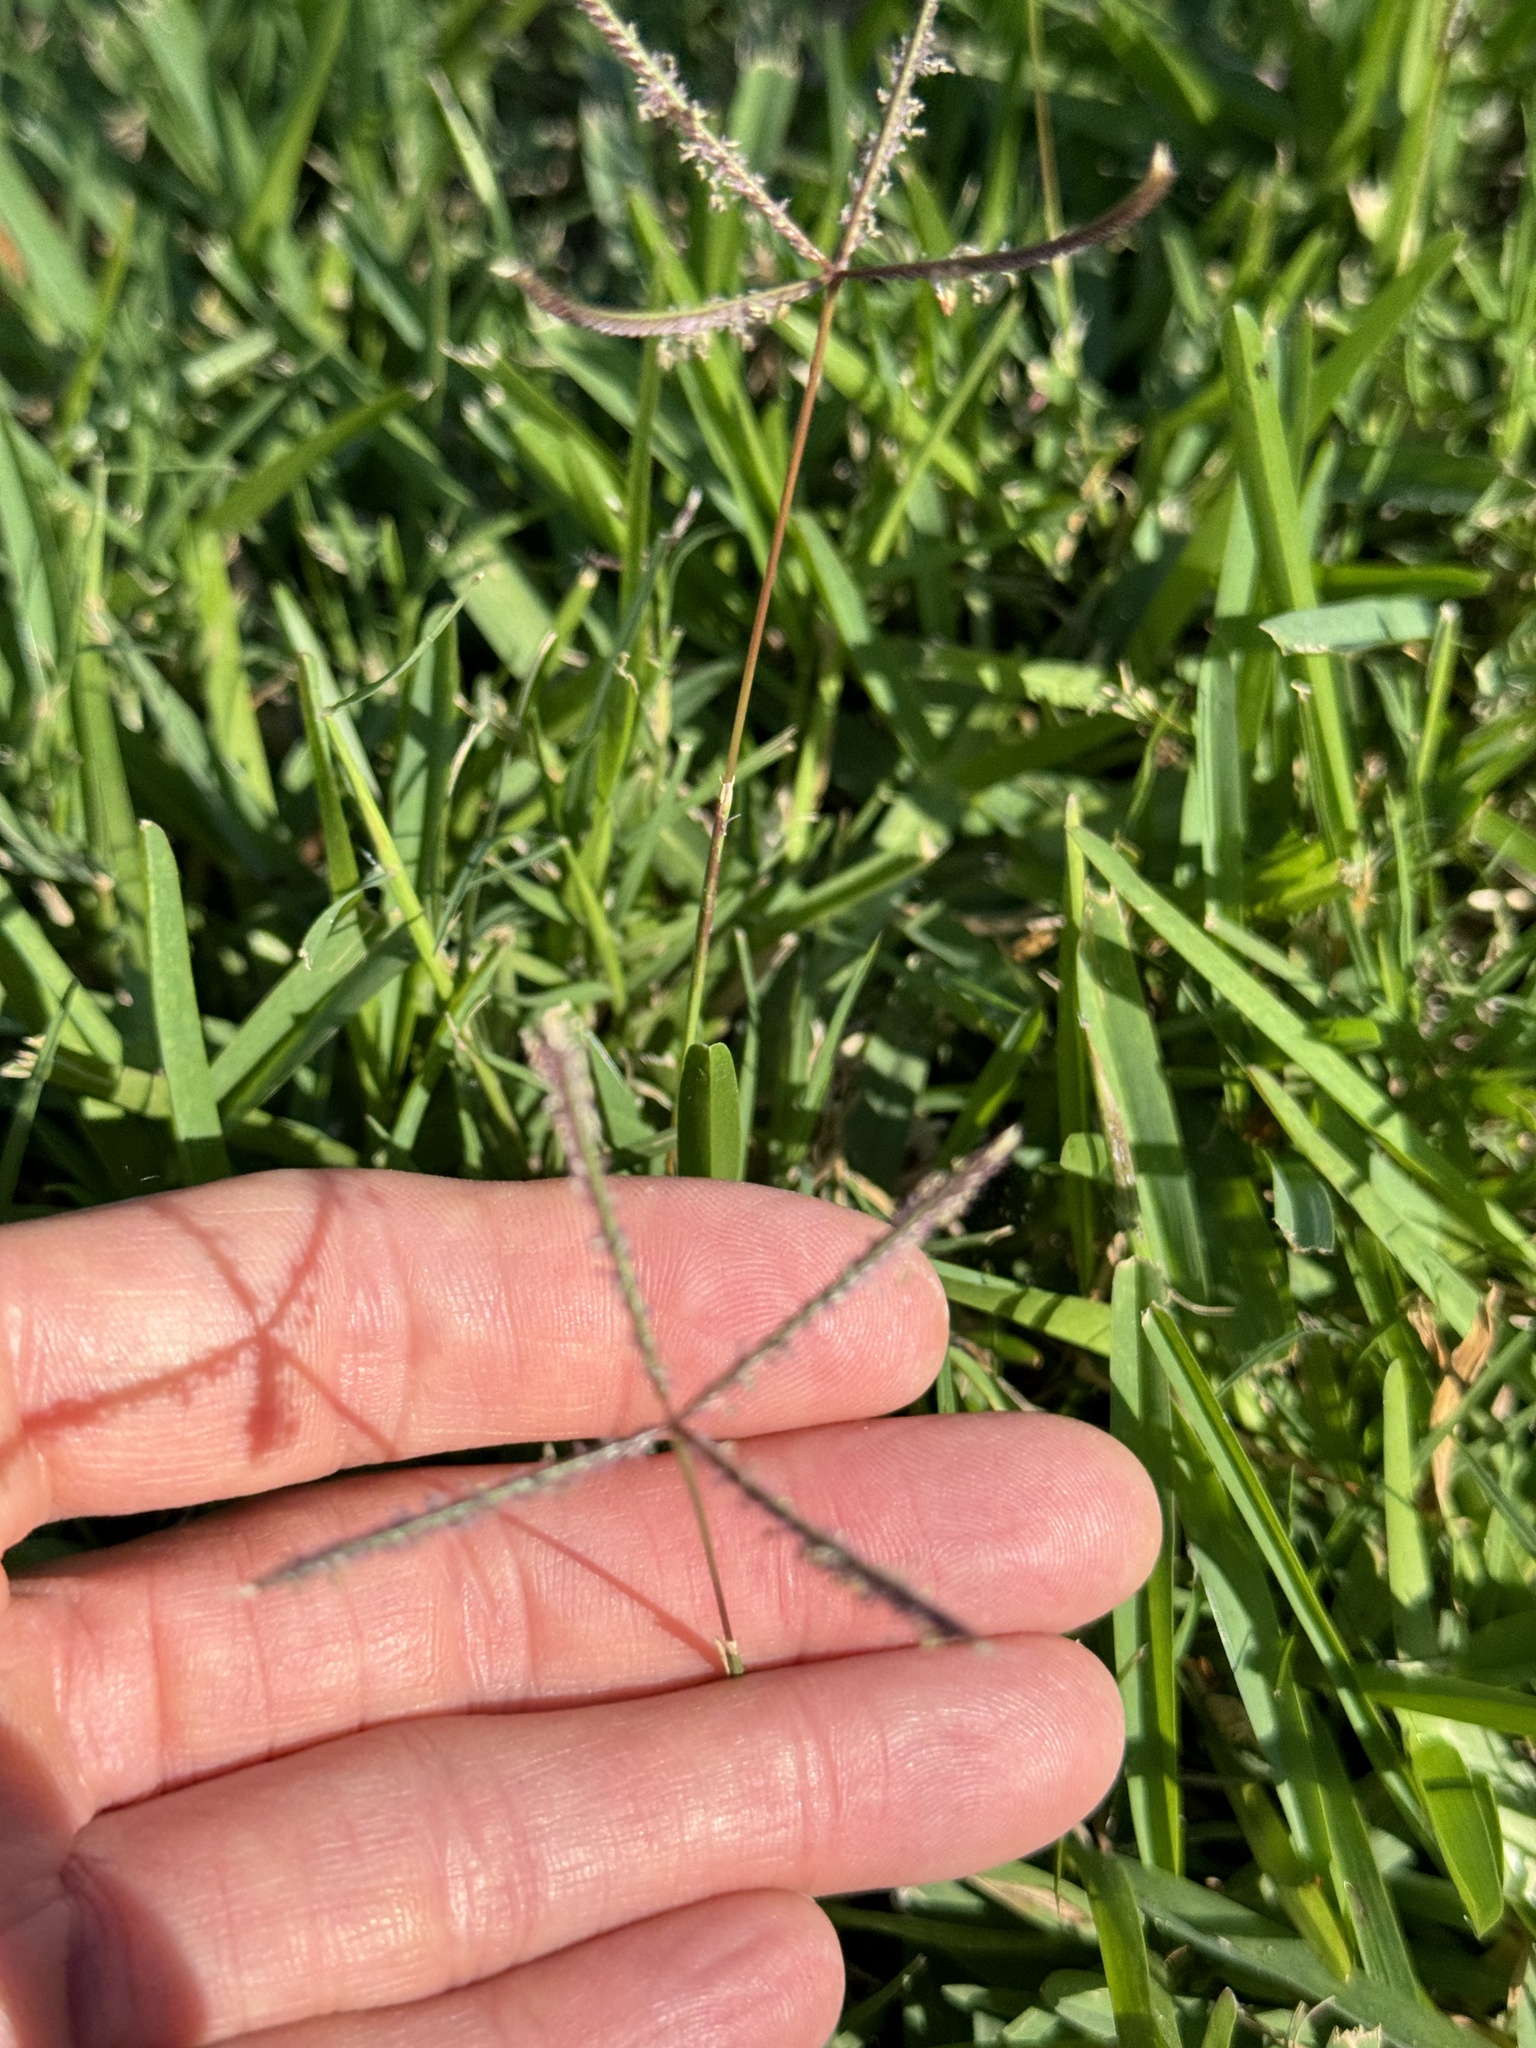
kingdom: Plantae
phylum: Tracheophyta
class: Liliopsida
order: Poales
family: Poaceae
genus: Cynodon
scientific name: Cynodon dactylon
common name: Bermuda grass
